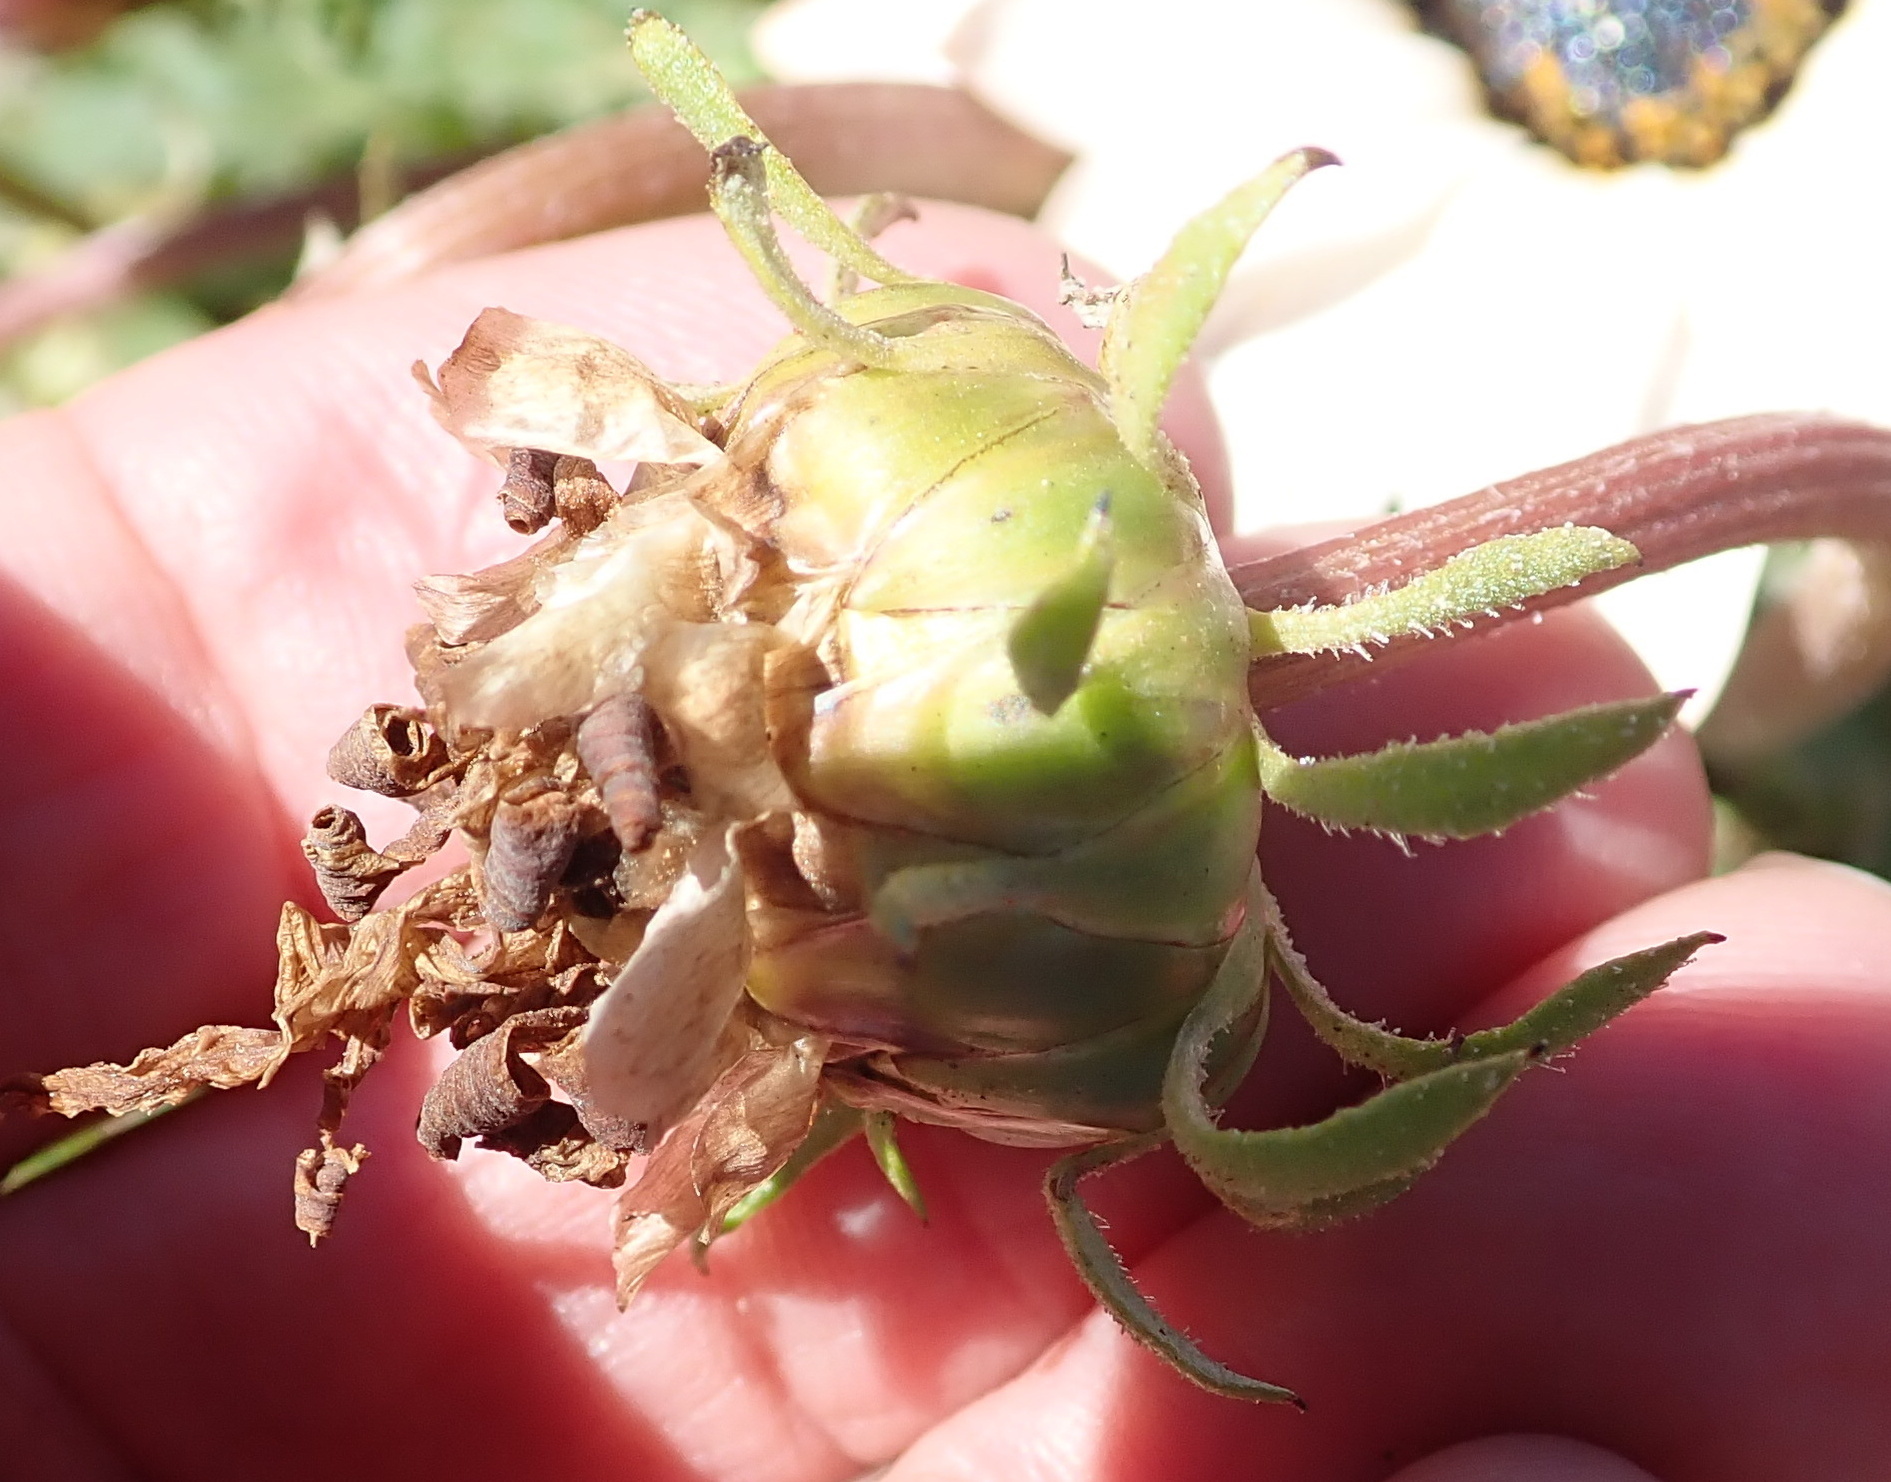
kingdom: Plantae
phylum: Tracheophyta
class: Magnoliopsida
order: Asterales
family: Asteraceae
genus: Arctotis
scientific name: Arctotis acaulis
